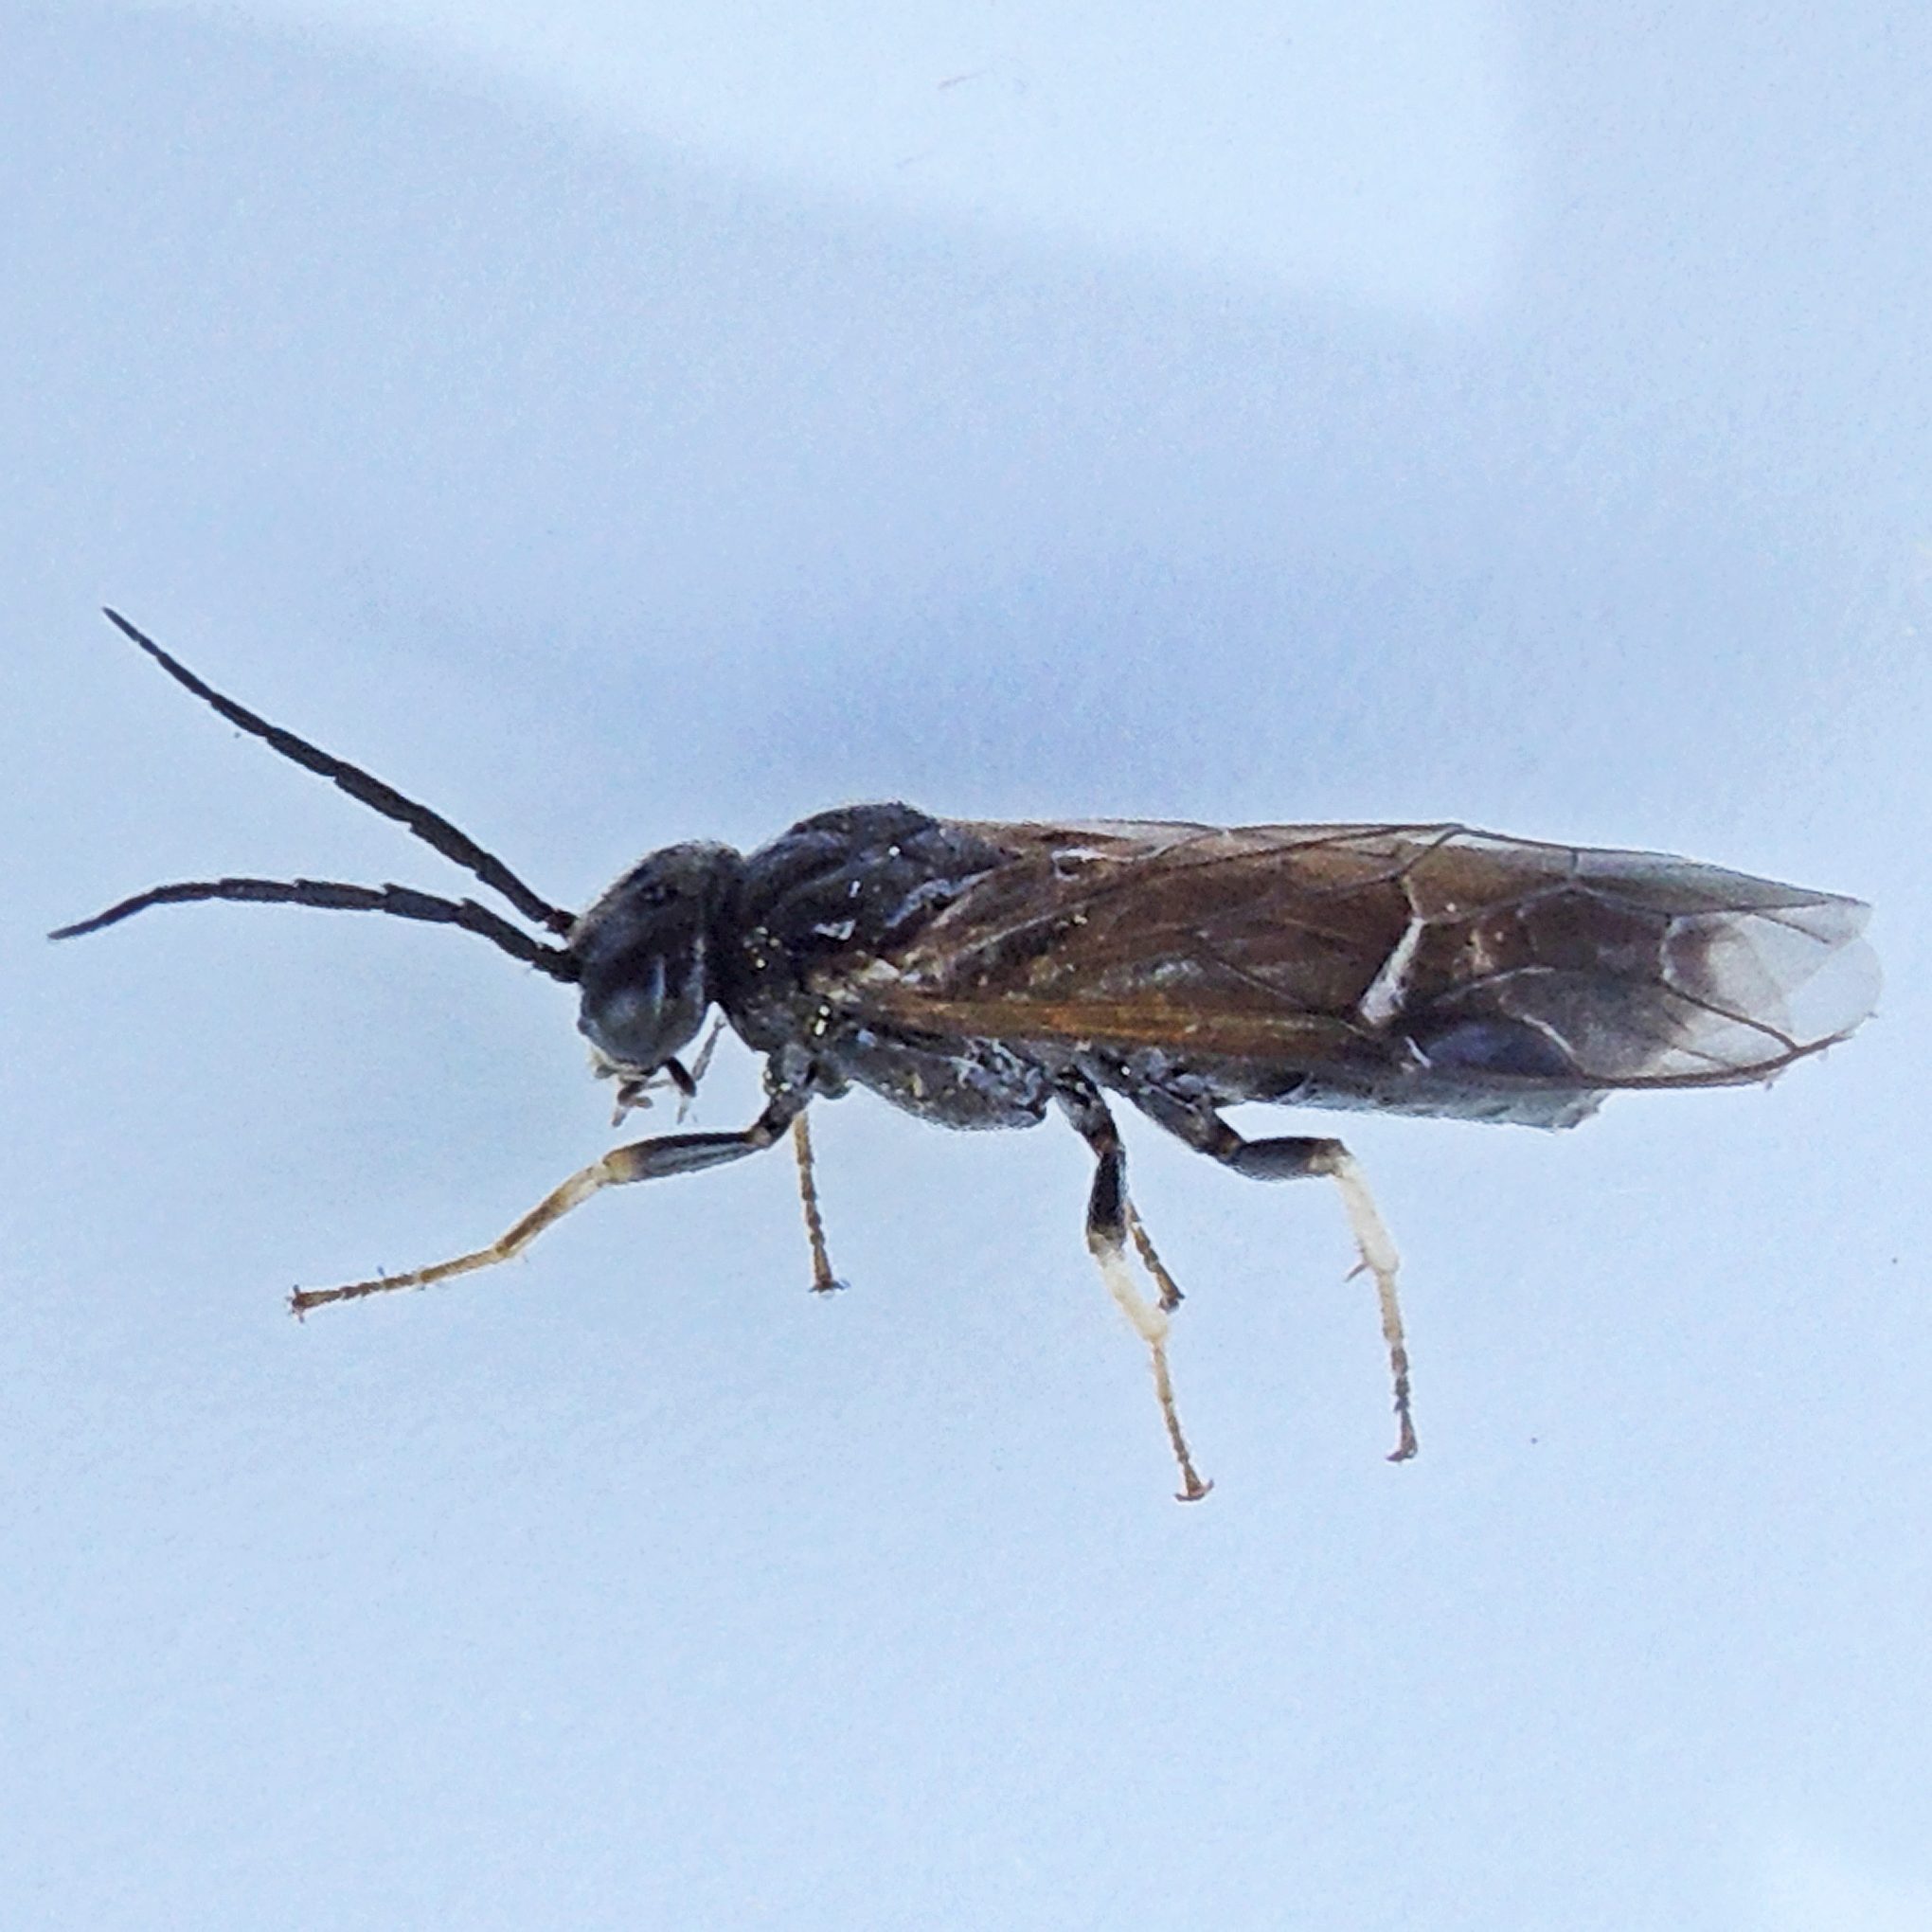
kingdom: Animalia
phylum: Arthropoda
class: Insecta
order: Hymenoptera
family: Tenthredinidae
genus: Cladius
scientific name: Cladius pectinicornis
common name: Sawfly
